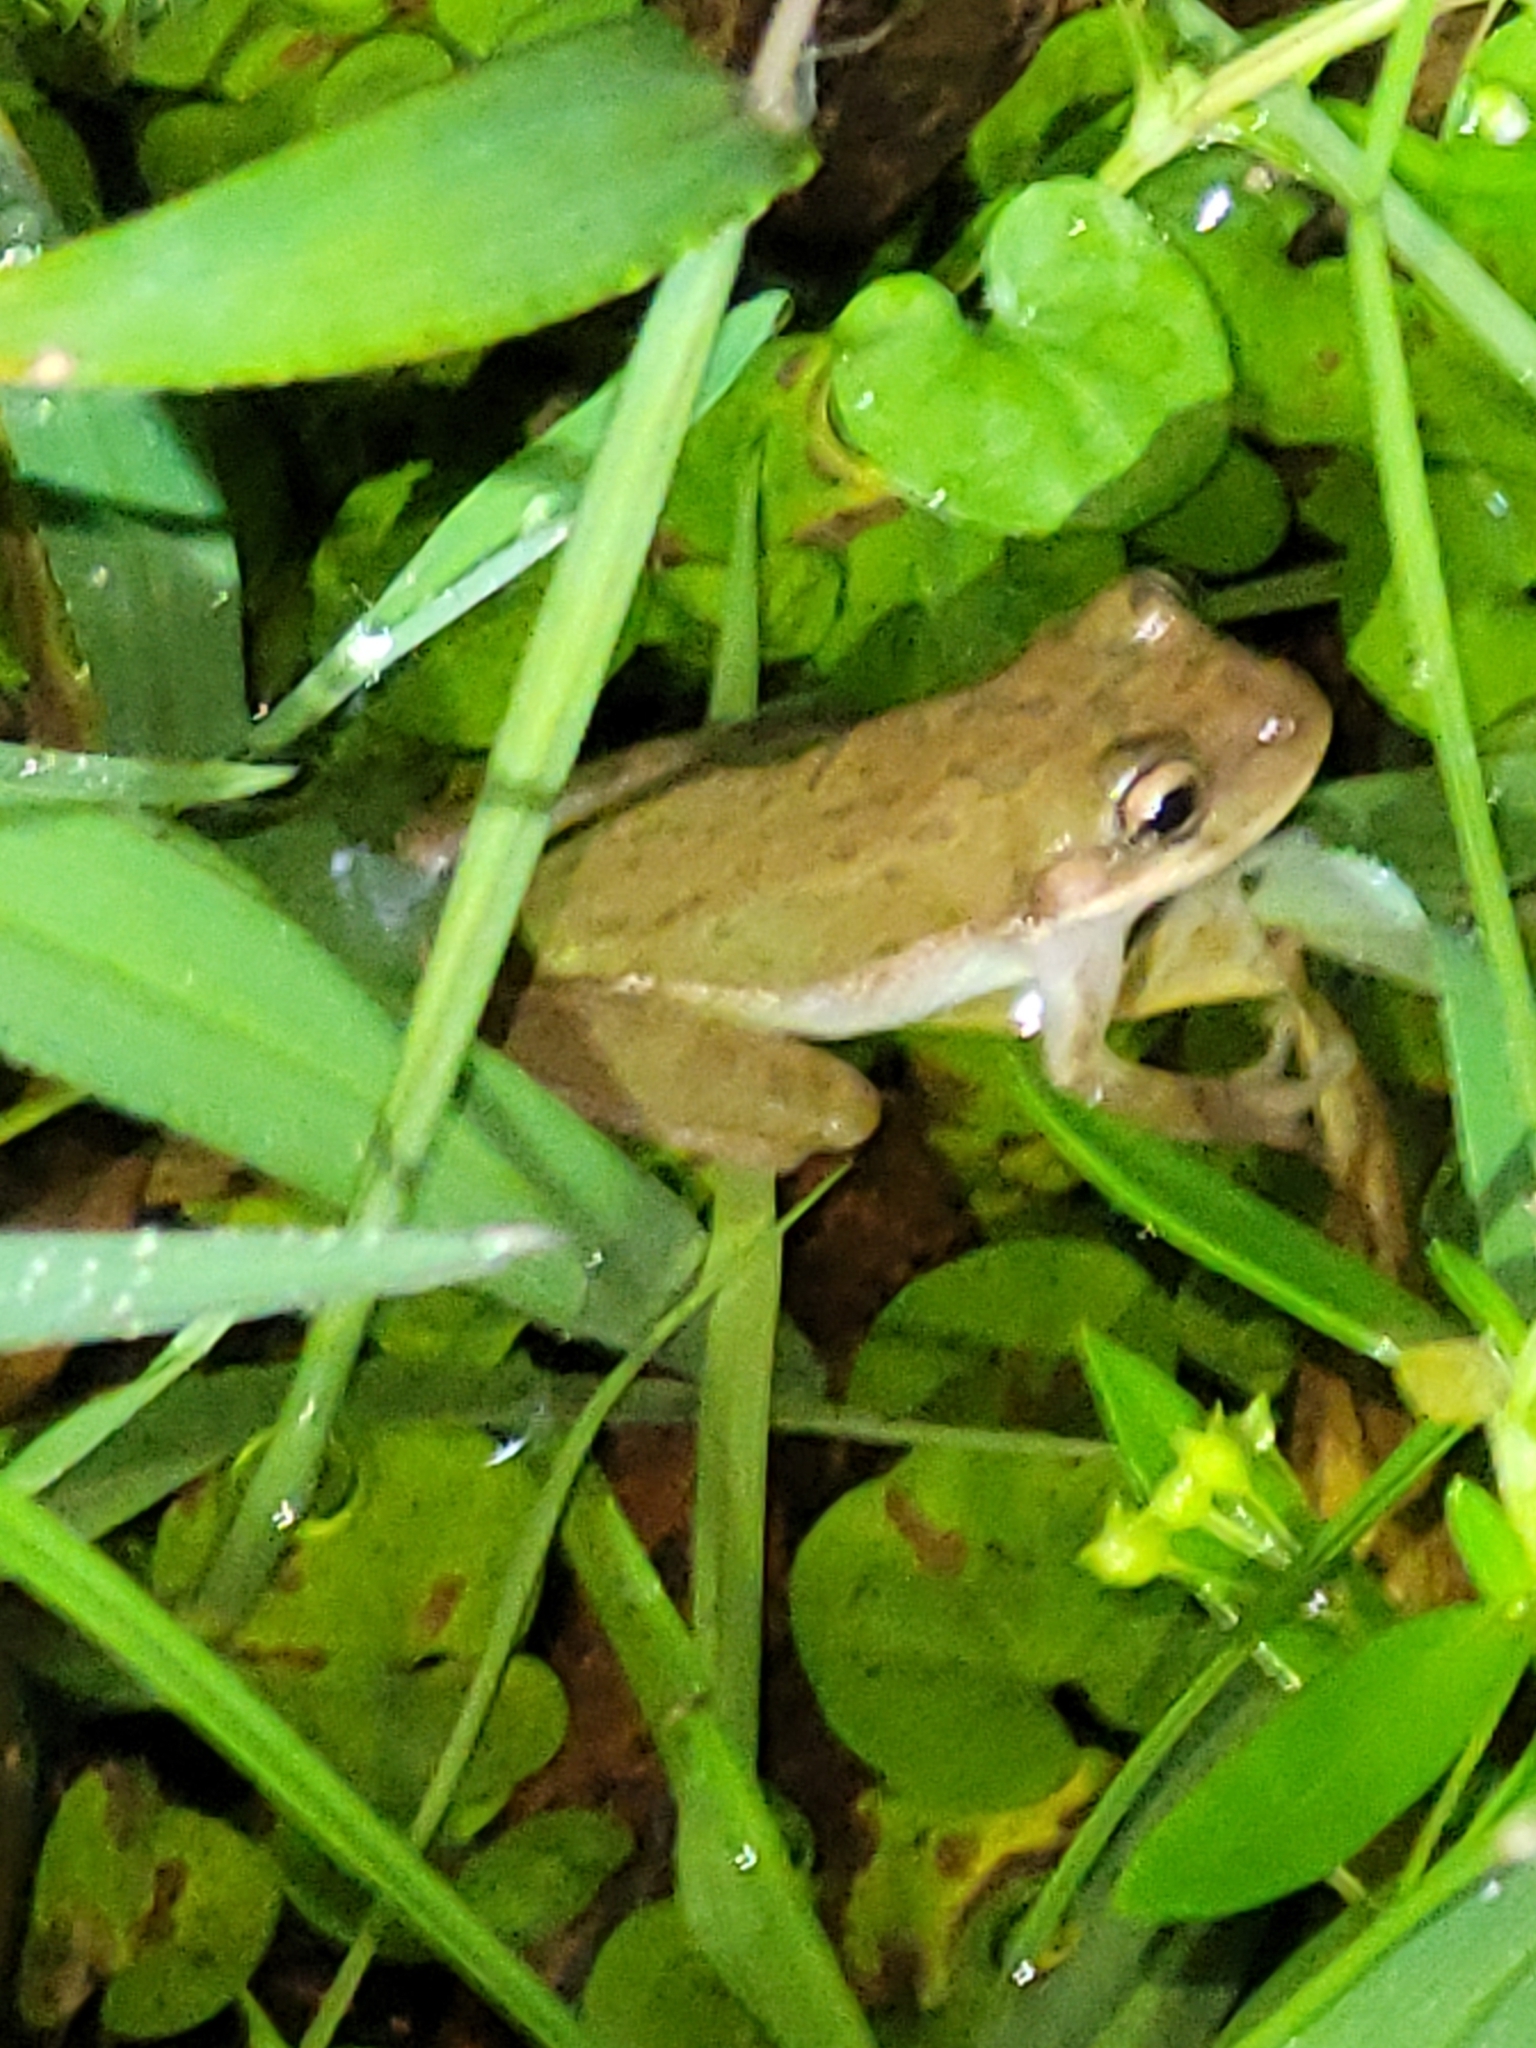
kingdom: Animalia
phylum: Chordata
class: Amphibia
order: Anura
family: Hylidae
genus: Dryophytes
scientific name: Dryophytes squirellus
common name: Squirrel treefrog
